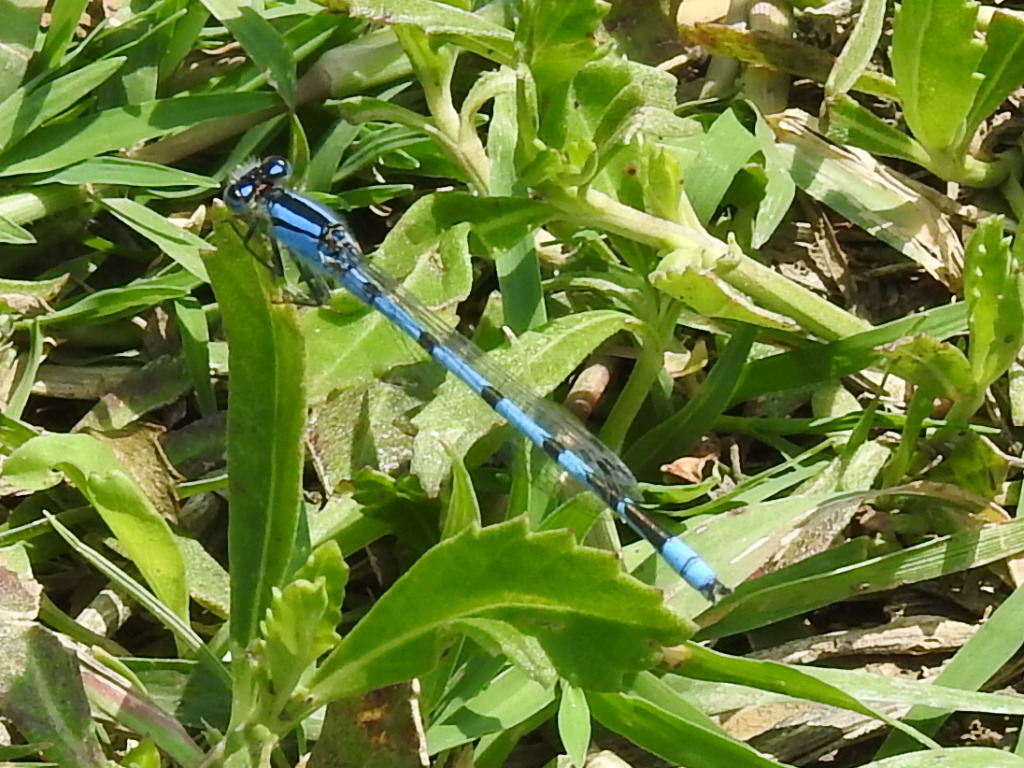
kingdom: Animalia
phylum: Arthropoda
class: Insecta
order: Odonata
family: Coenagrionidae
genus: Enallagma
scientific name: Enallagma civile
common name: Damselfly
